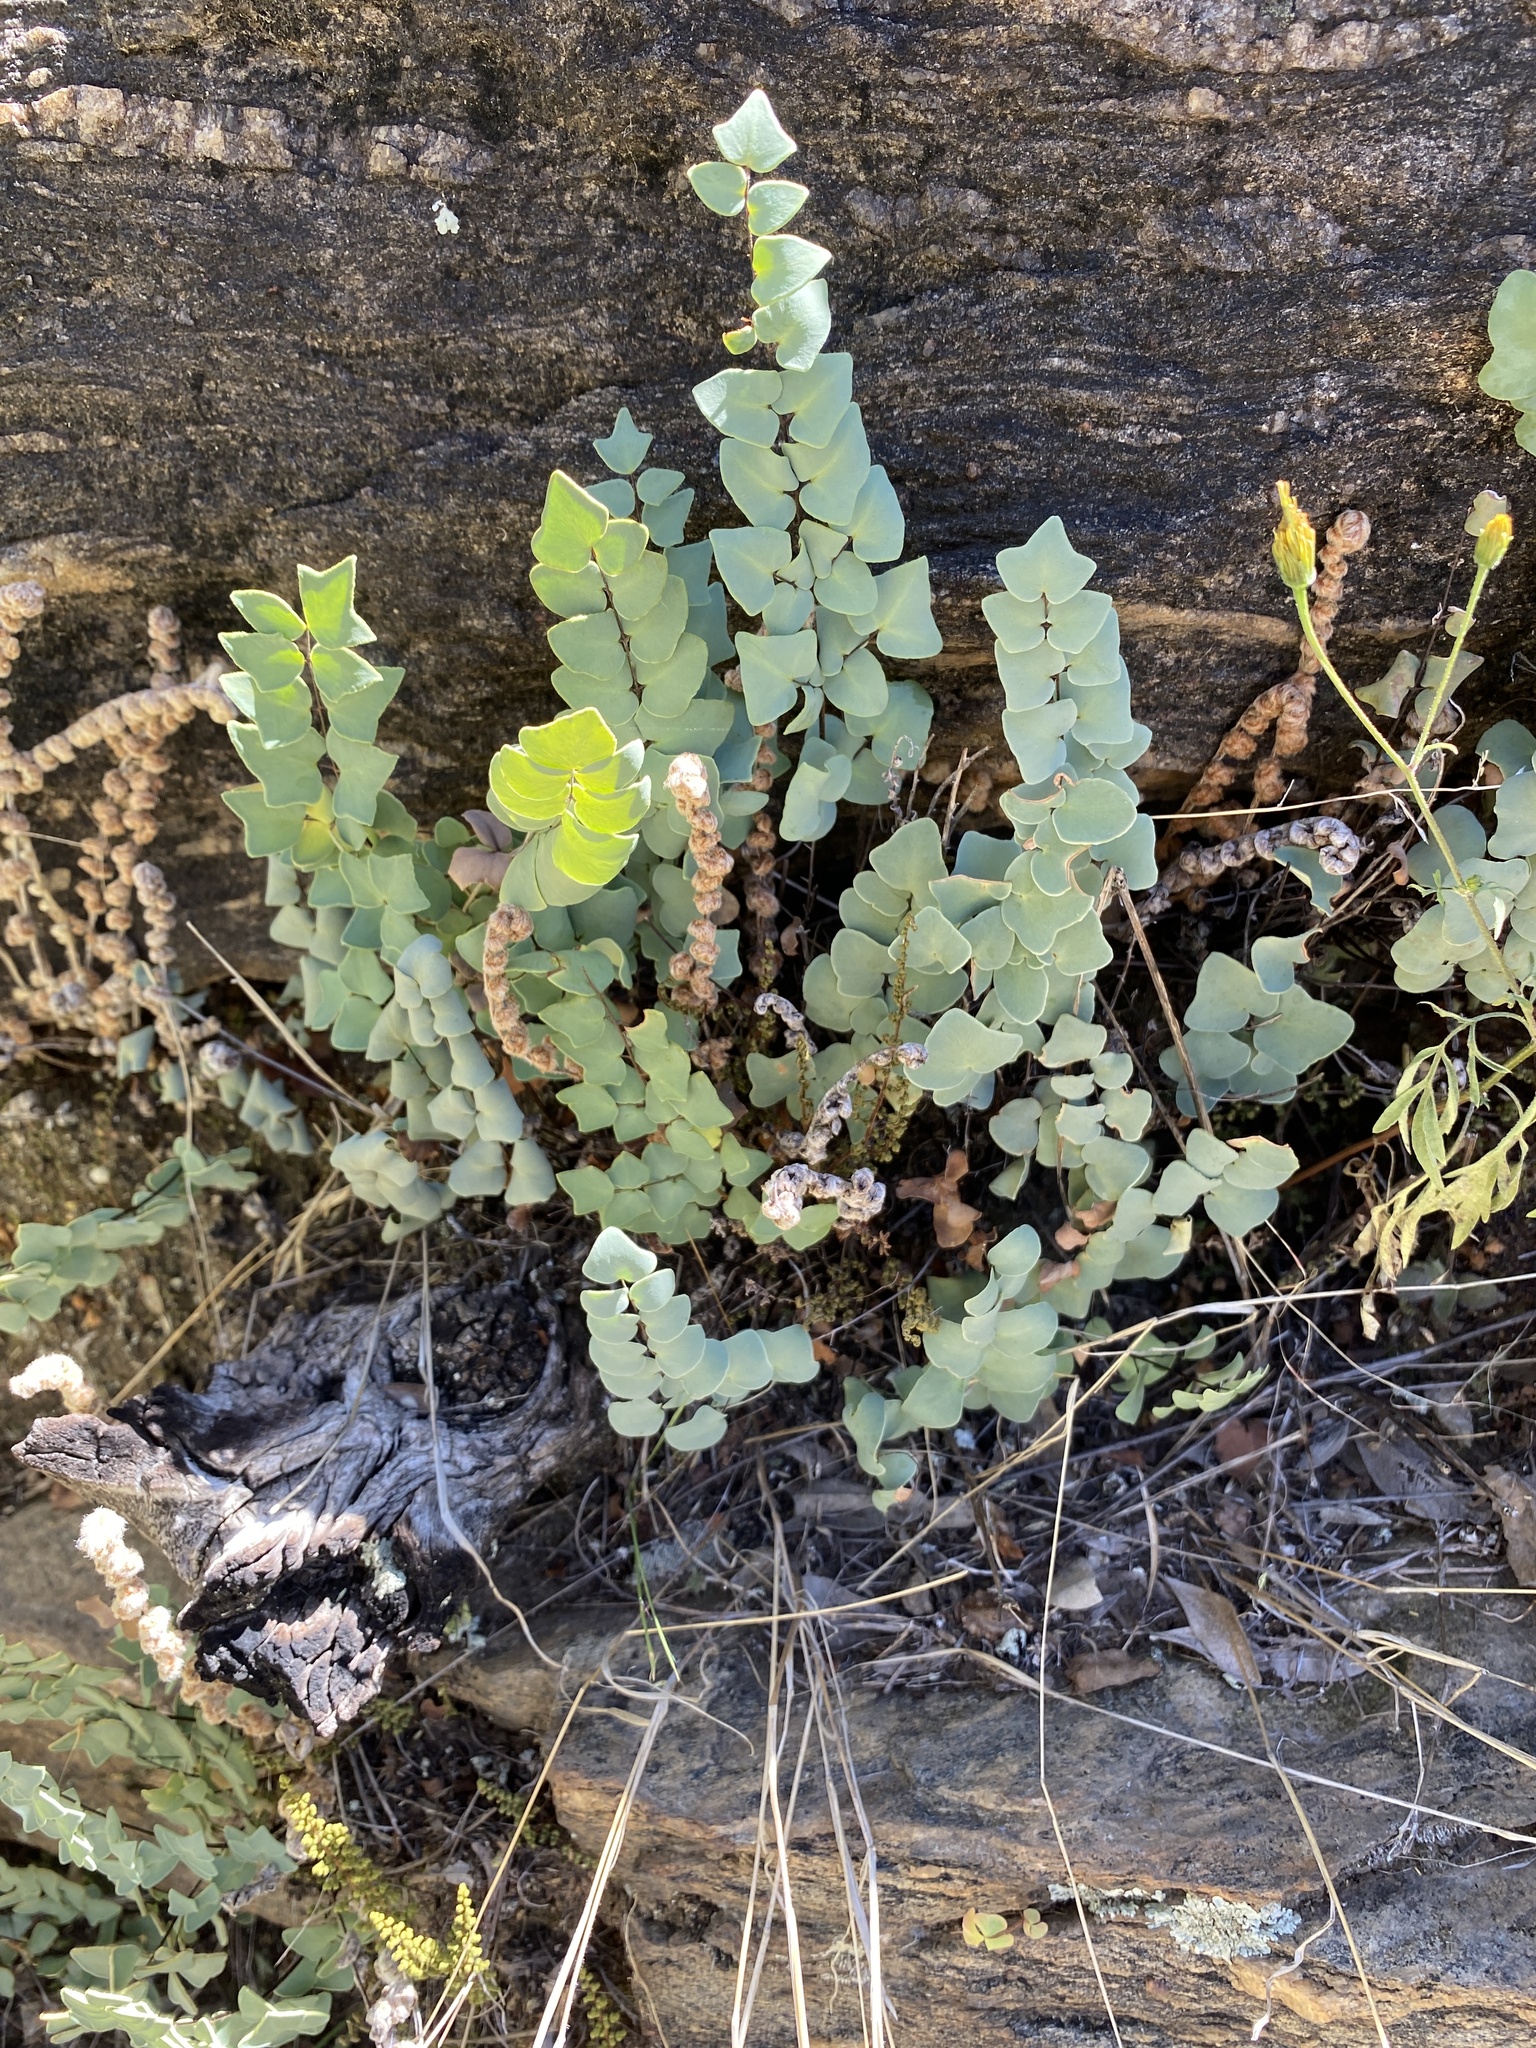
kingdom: Plantae
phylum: Tracheophyta
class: Polypodiopsida
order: Polypodiales
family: Pteridaceae
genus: Pellaea
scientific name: Pellaea calomelanos
